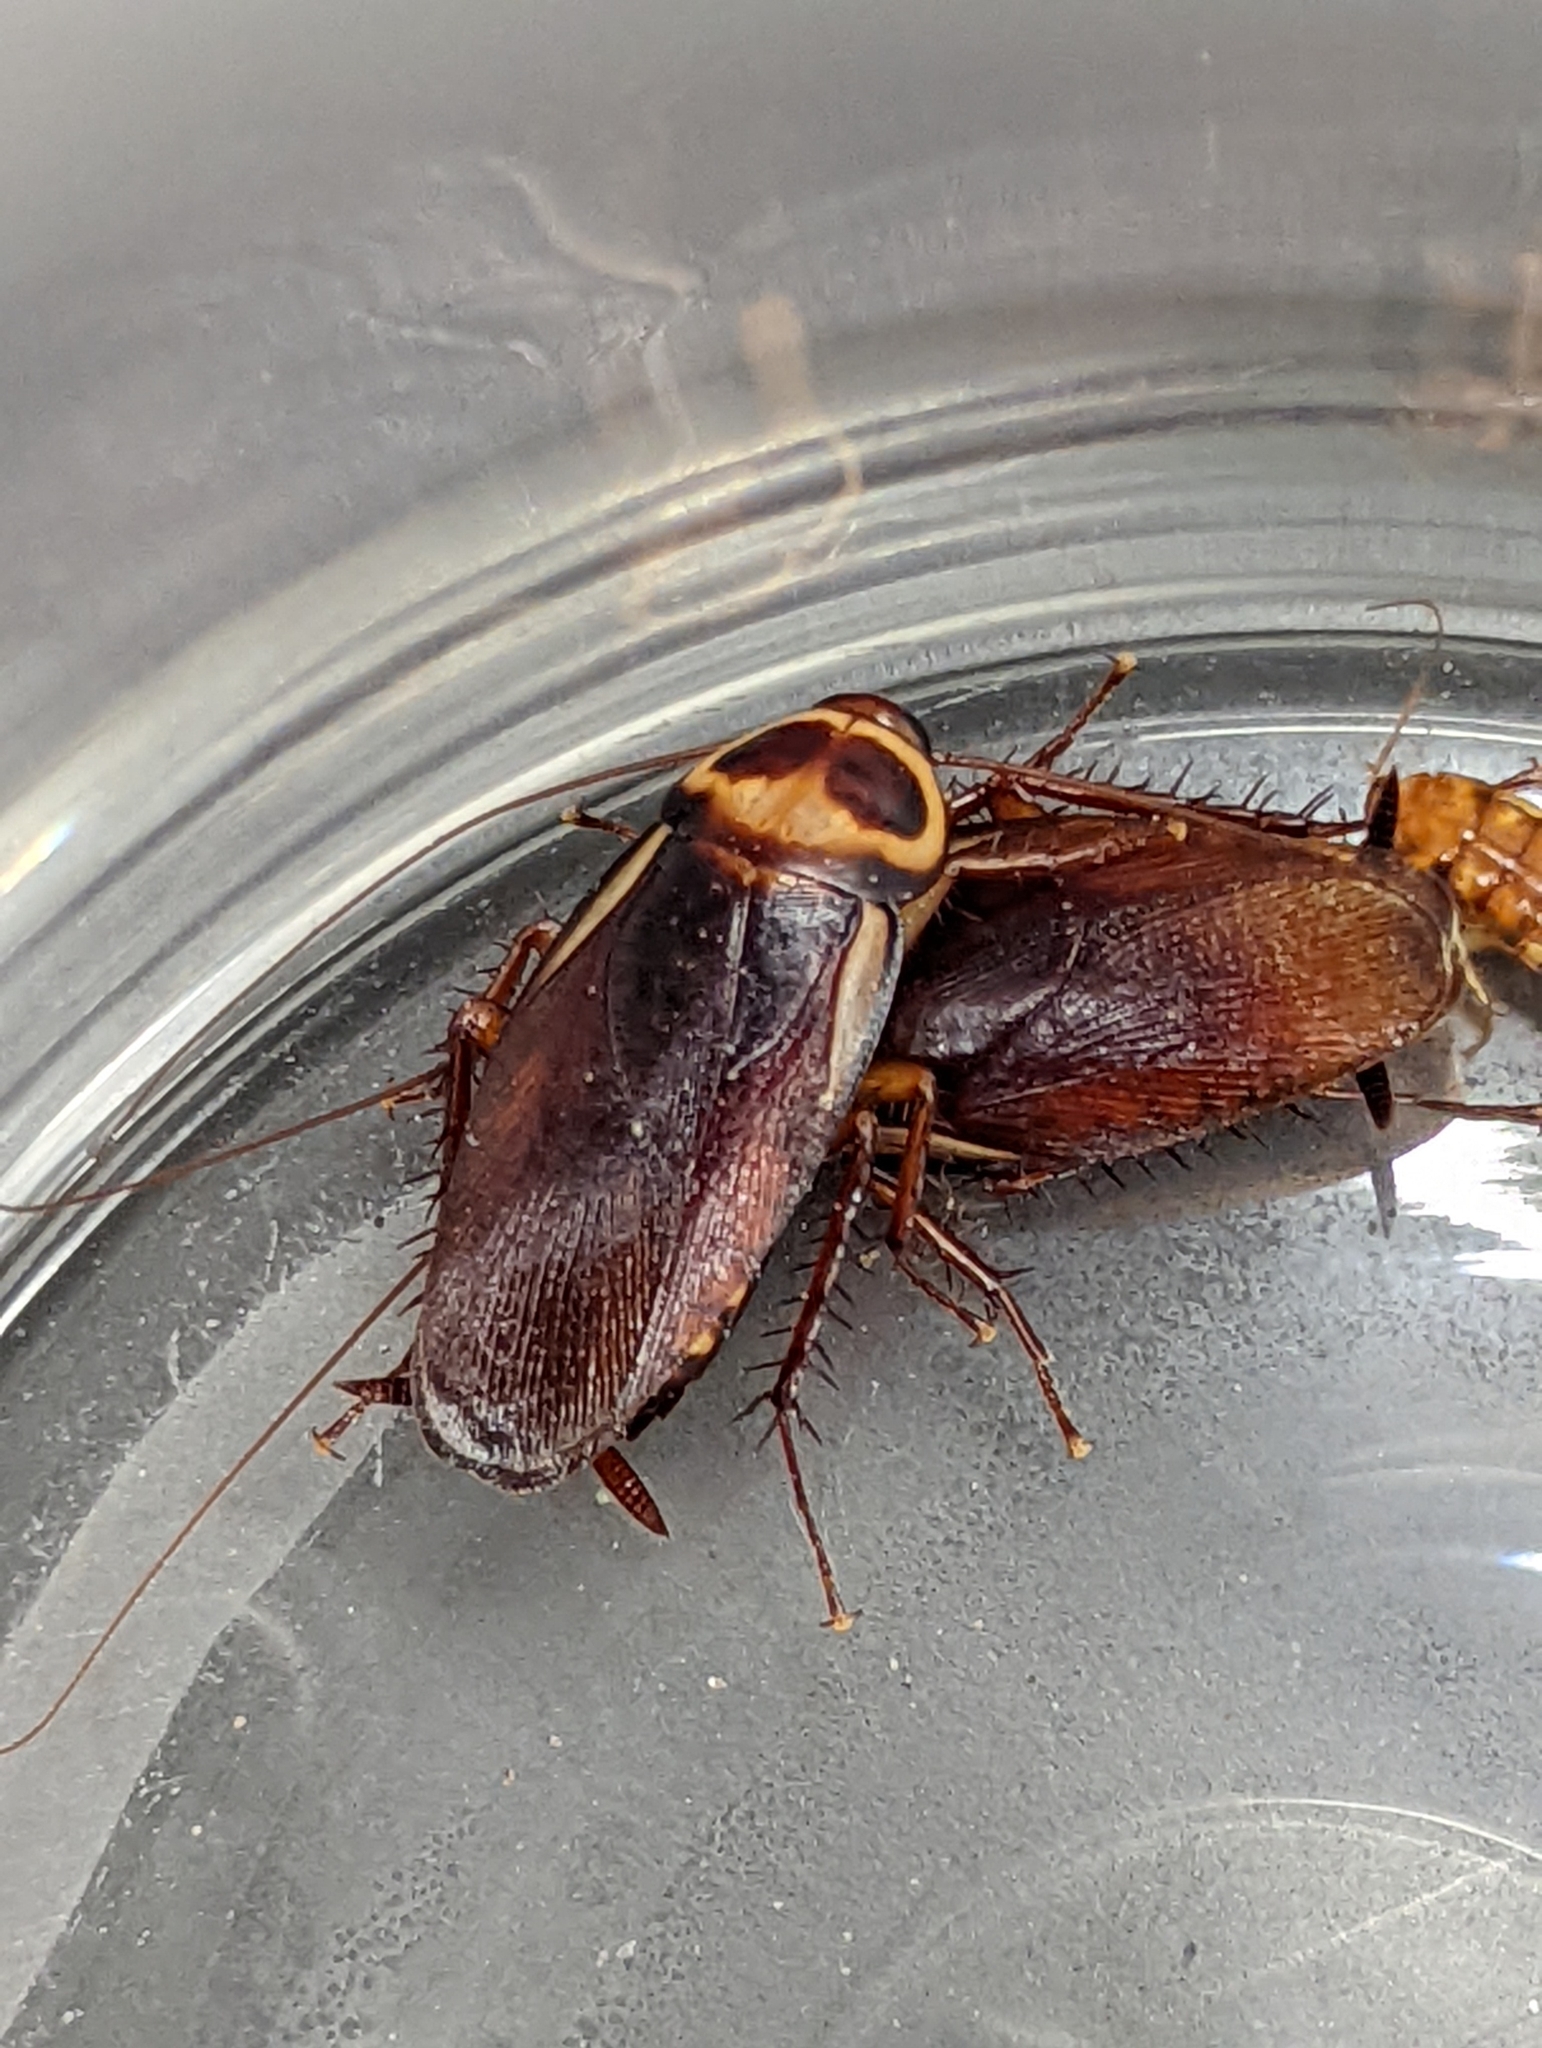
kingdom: Animalia
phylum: Arthropoda
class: Insecta
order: Blattodea
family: Blattidae
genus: Periplaneta
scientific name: Periplaneta australasiae
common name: Australian cockroach
